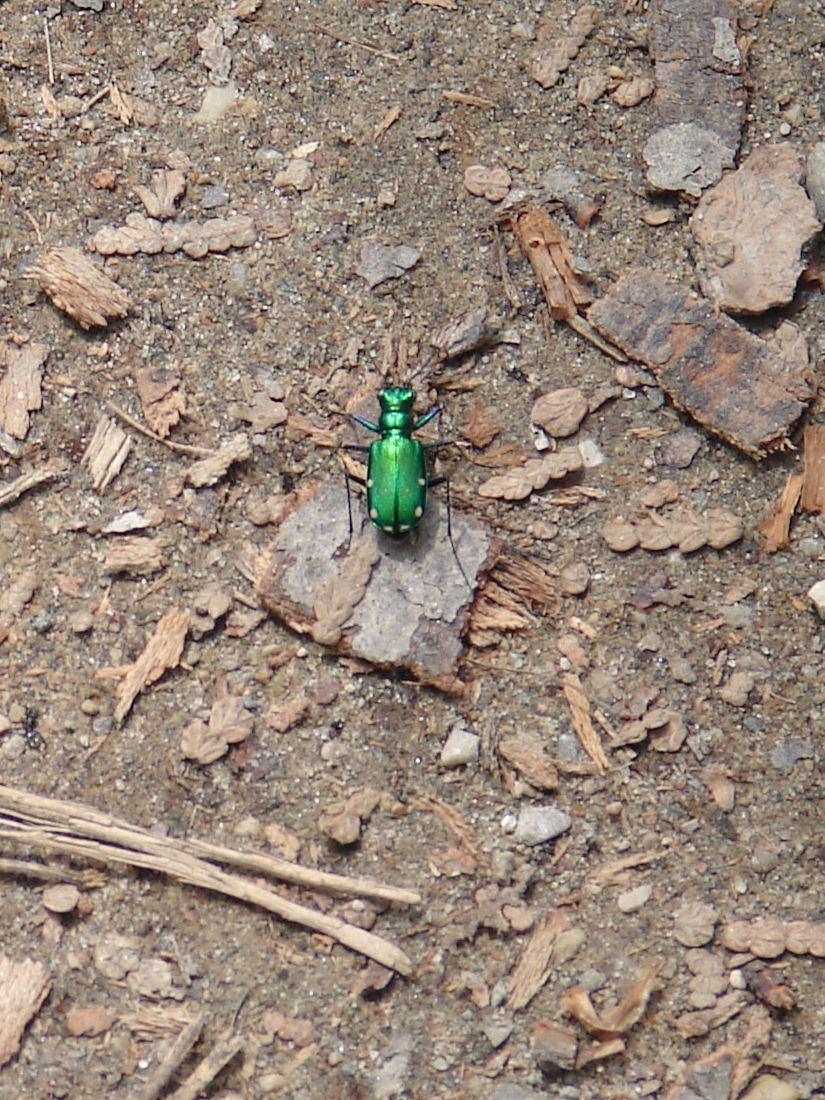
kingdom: Animalia
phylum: Arthropoda
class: Insecta
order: Coleoptera
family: Carabidae
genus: Cicindela
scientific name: Cicindela sexguttata
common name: Six-spotted tiger beetle
